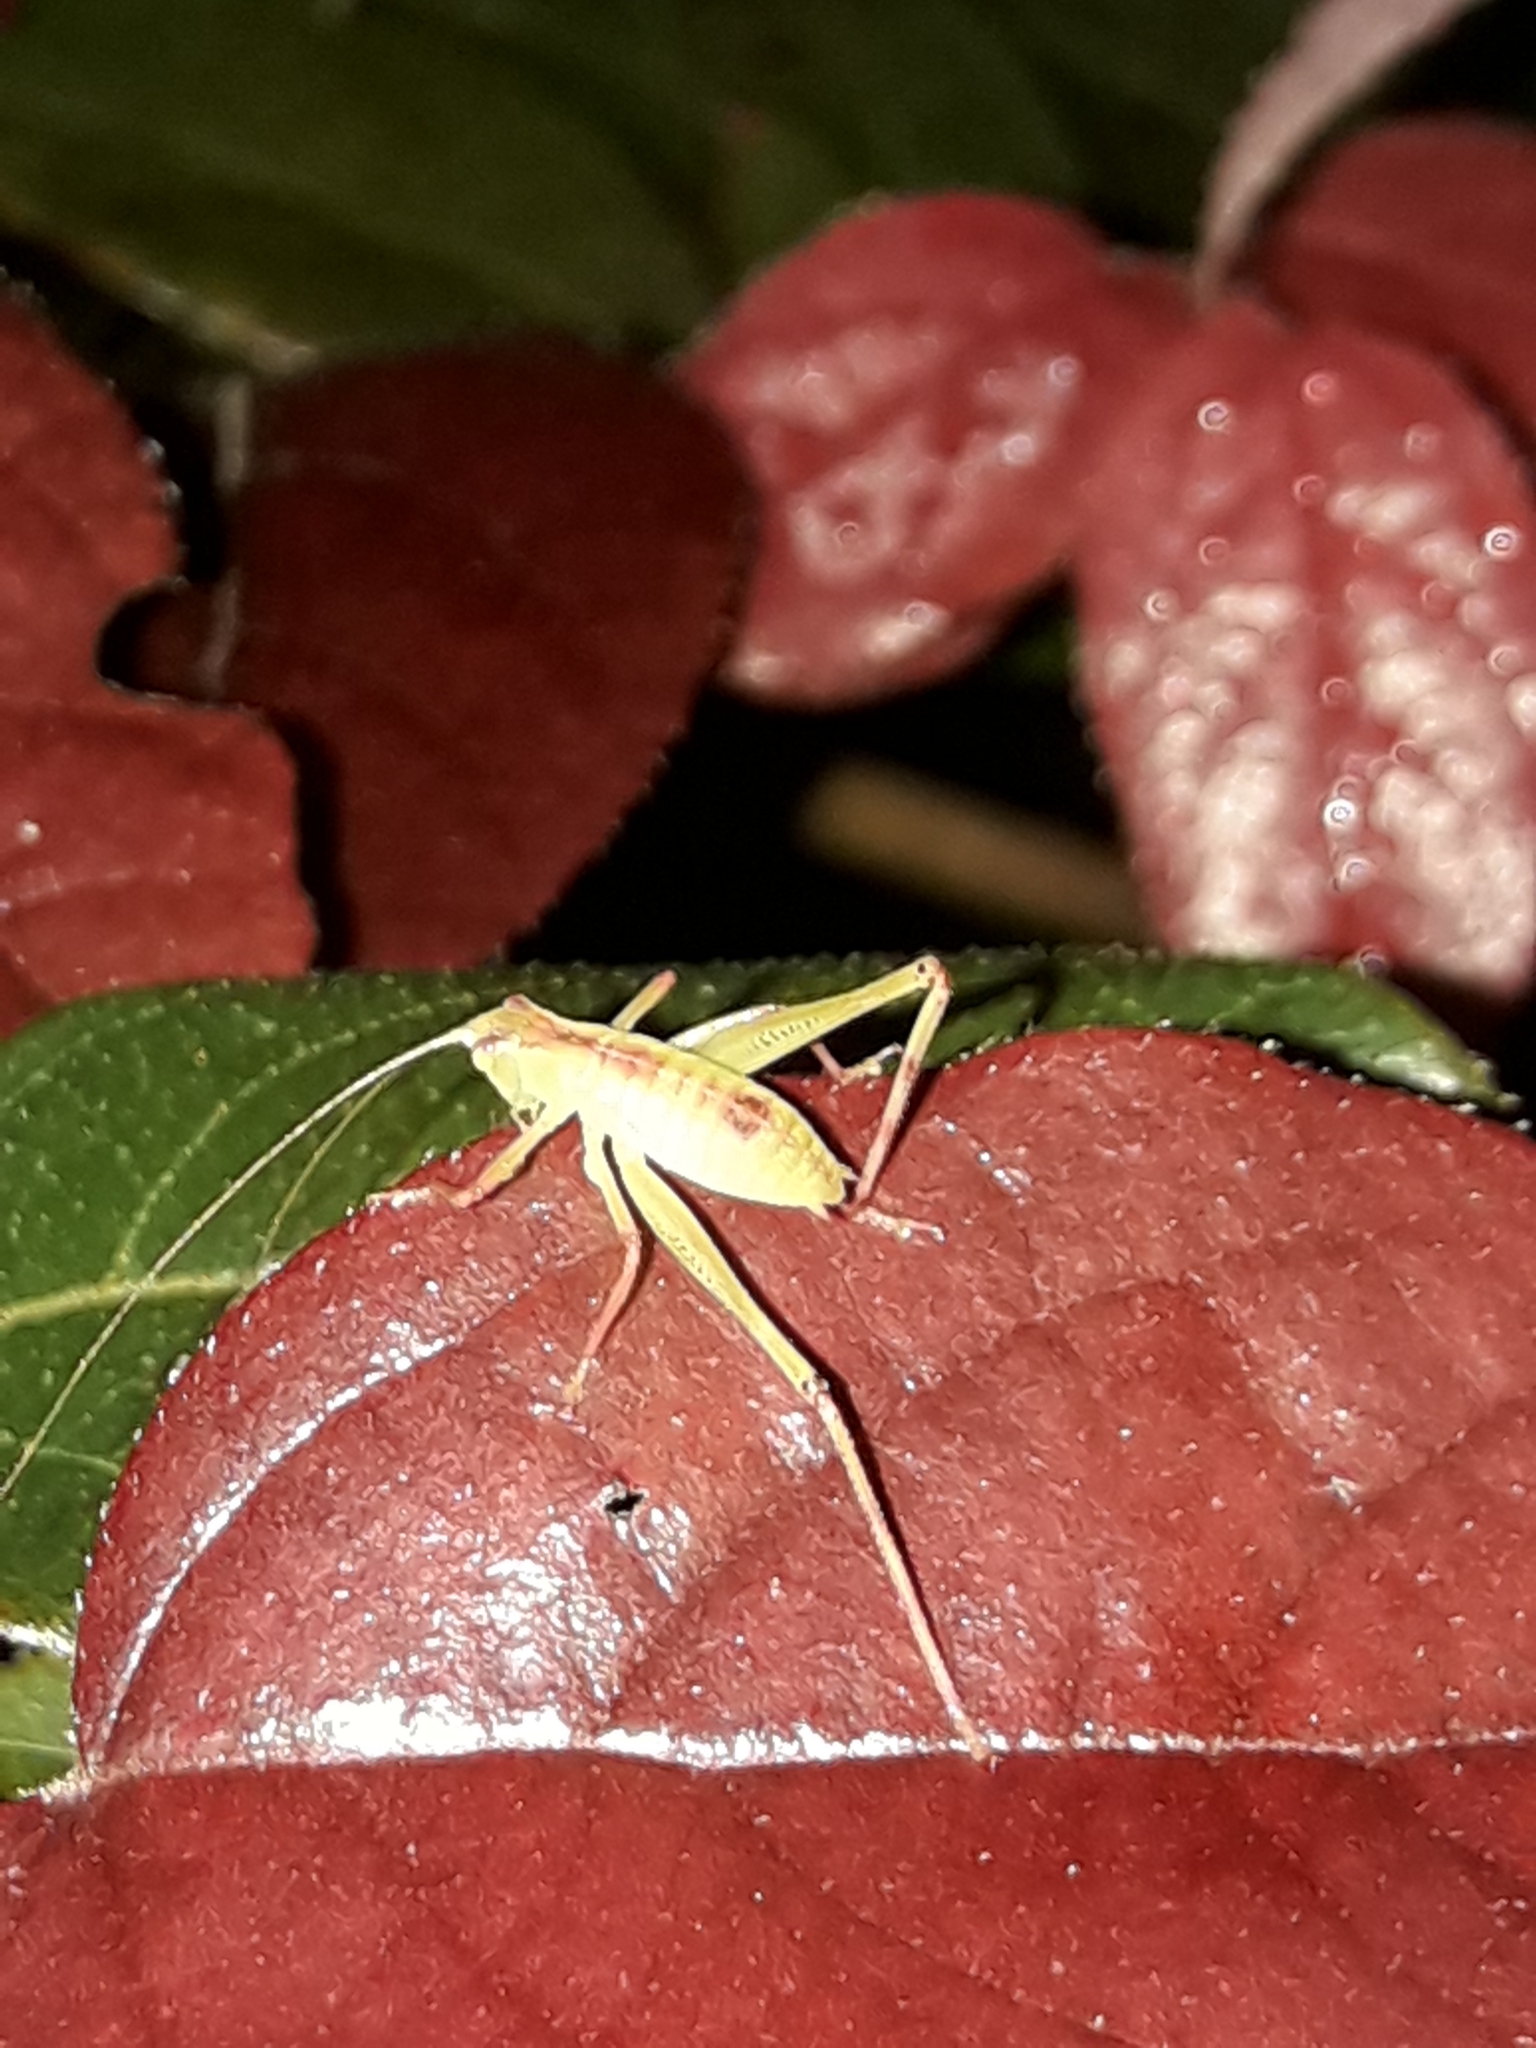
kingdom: Animalia
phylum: Arthropoda
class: Insecta
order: Orthoptera
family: Tettigoniidae
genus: Caedicia
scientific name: Caedicia simplex
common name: Common garden katydid
